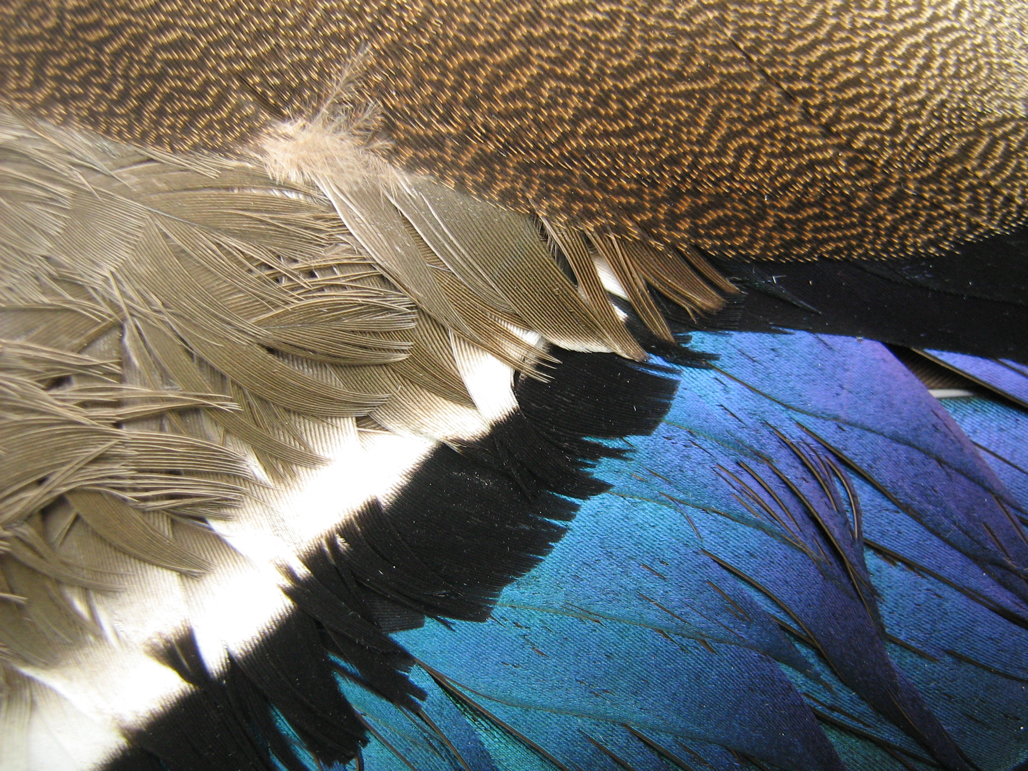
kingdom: Animalia
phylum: Chordata
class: Aves
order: Anseriformes
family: Anatidae
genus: Anas
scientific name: Anas platyrhynchos
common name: Mallard
